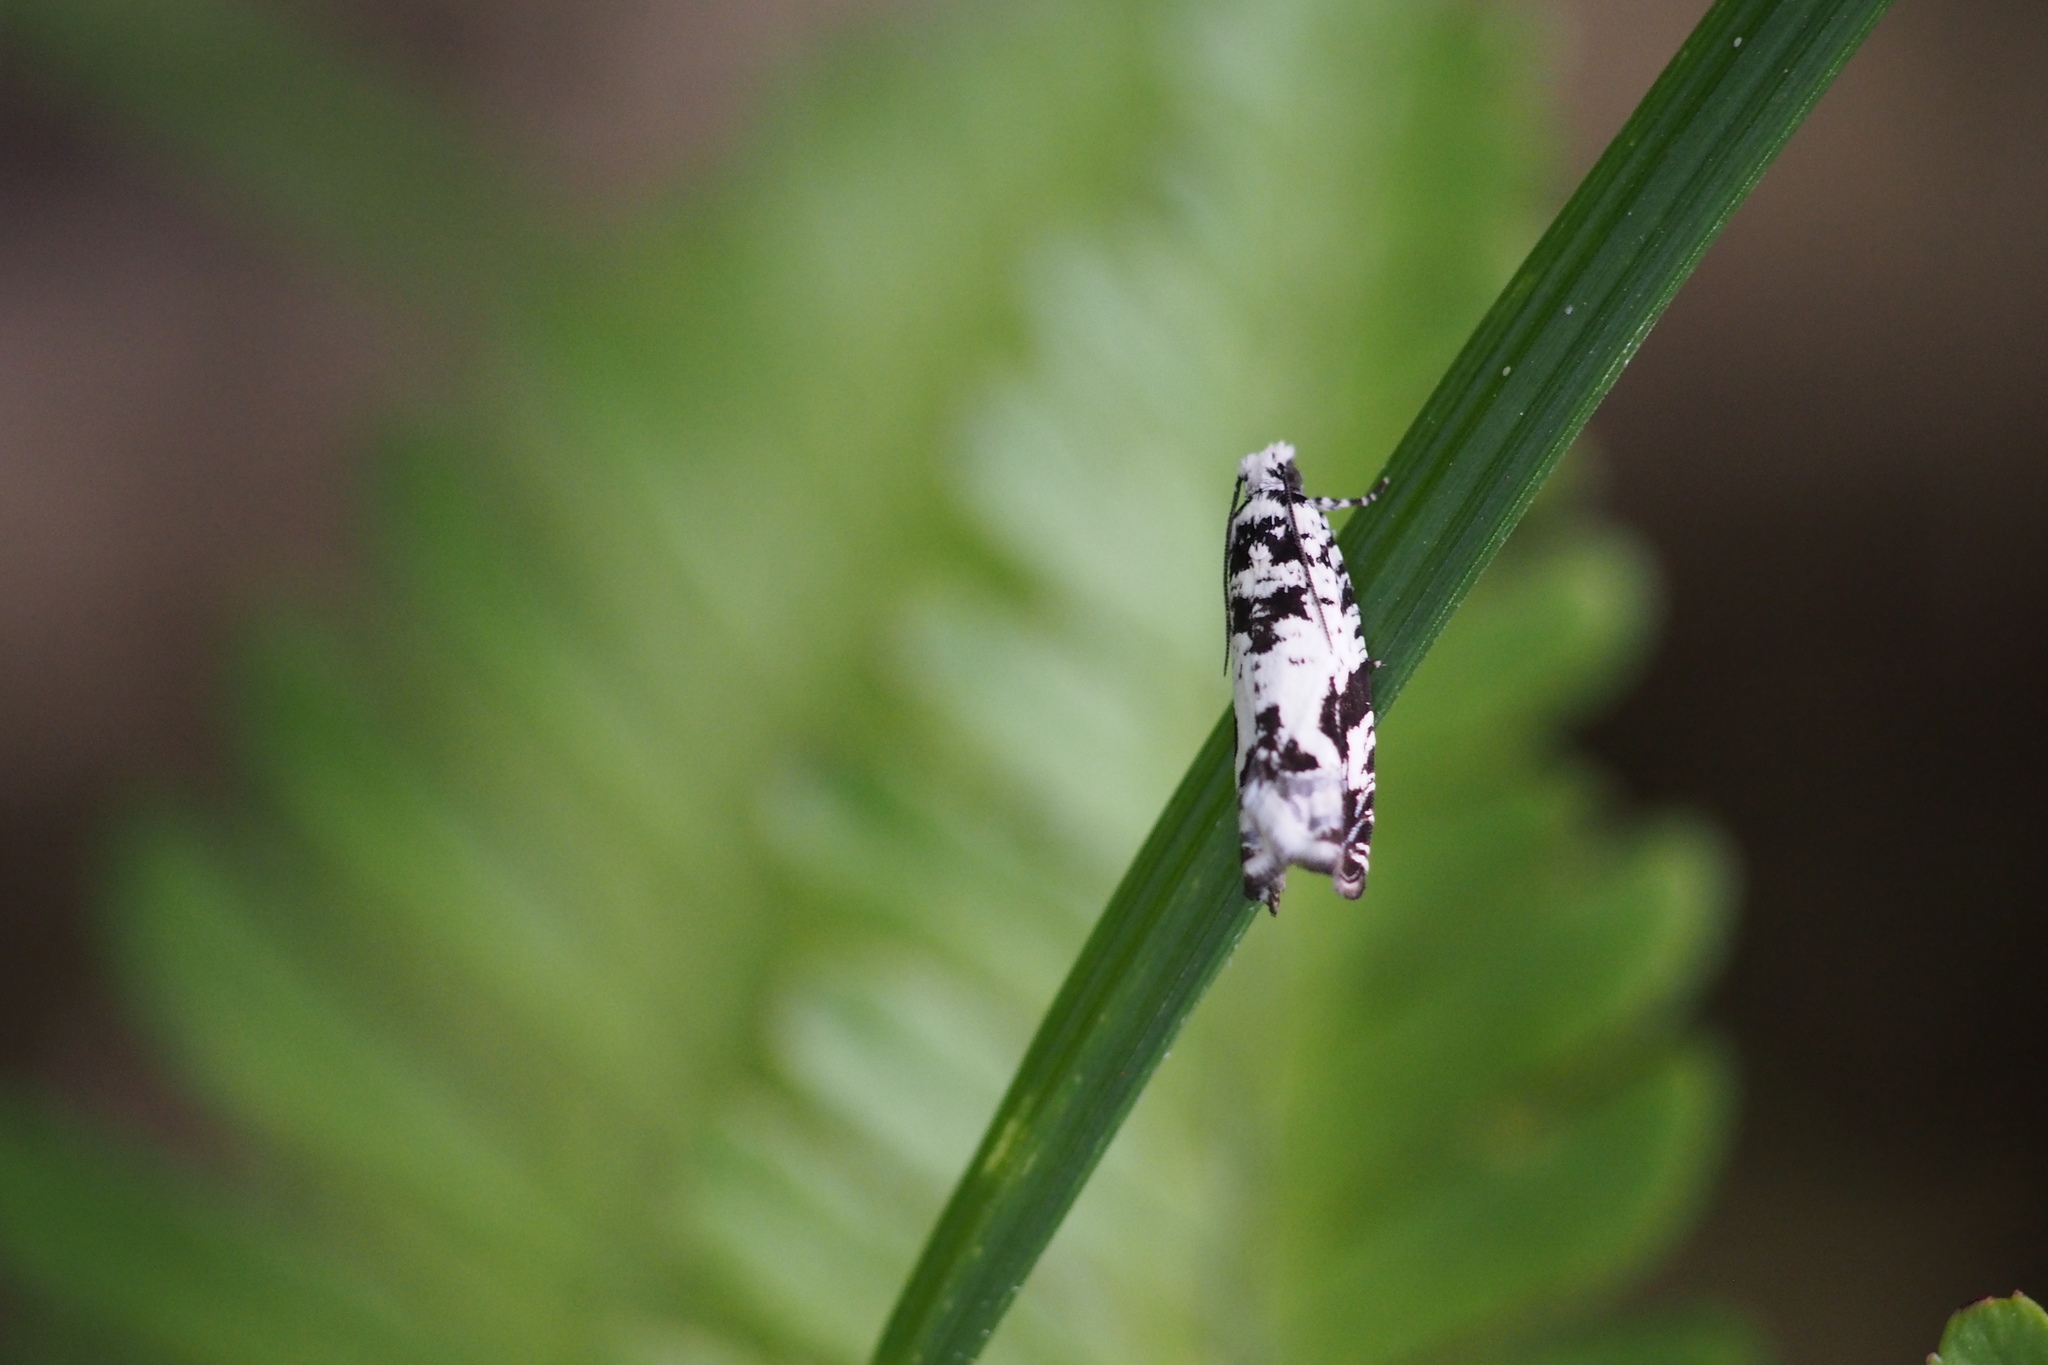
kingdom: Animalia
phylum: Arthropoda
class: Insecta
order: Lepidoptera
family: Tortricidae
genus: Epinotia
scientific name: Epinotia exquisitana
